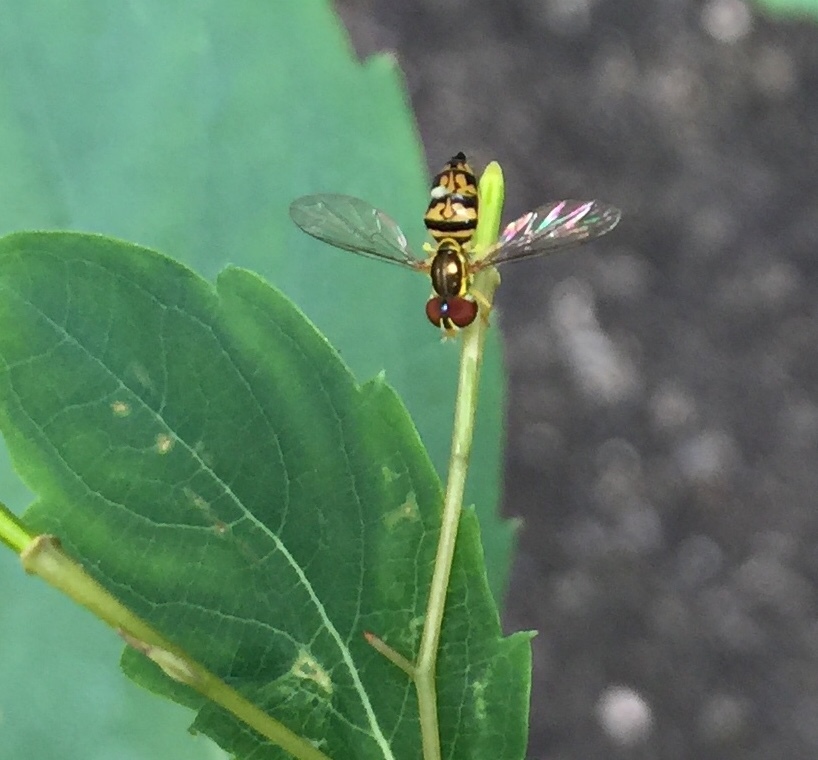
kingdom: Animalia
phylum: Arthropoda
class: Insecta
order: Diptera
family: Syrphidae
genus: Toxomerus
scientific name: Toxomerus geminatus
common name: Eastern calligrapher
